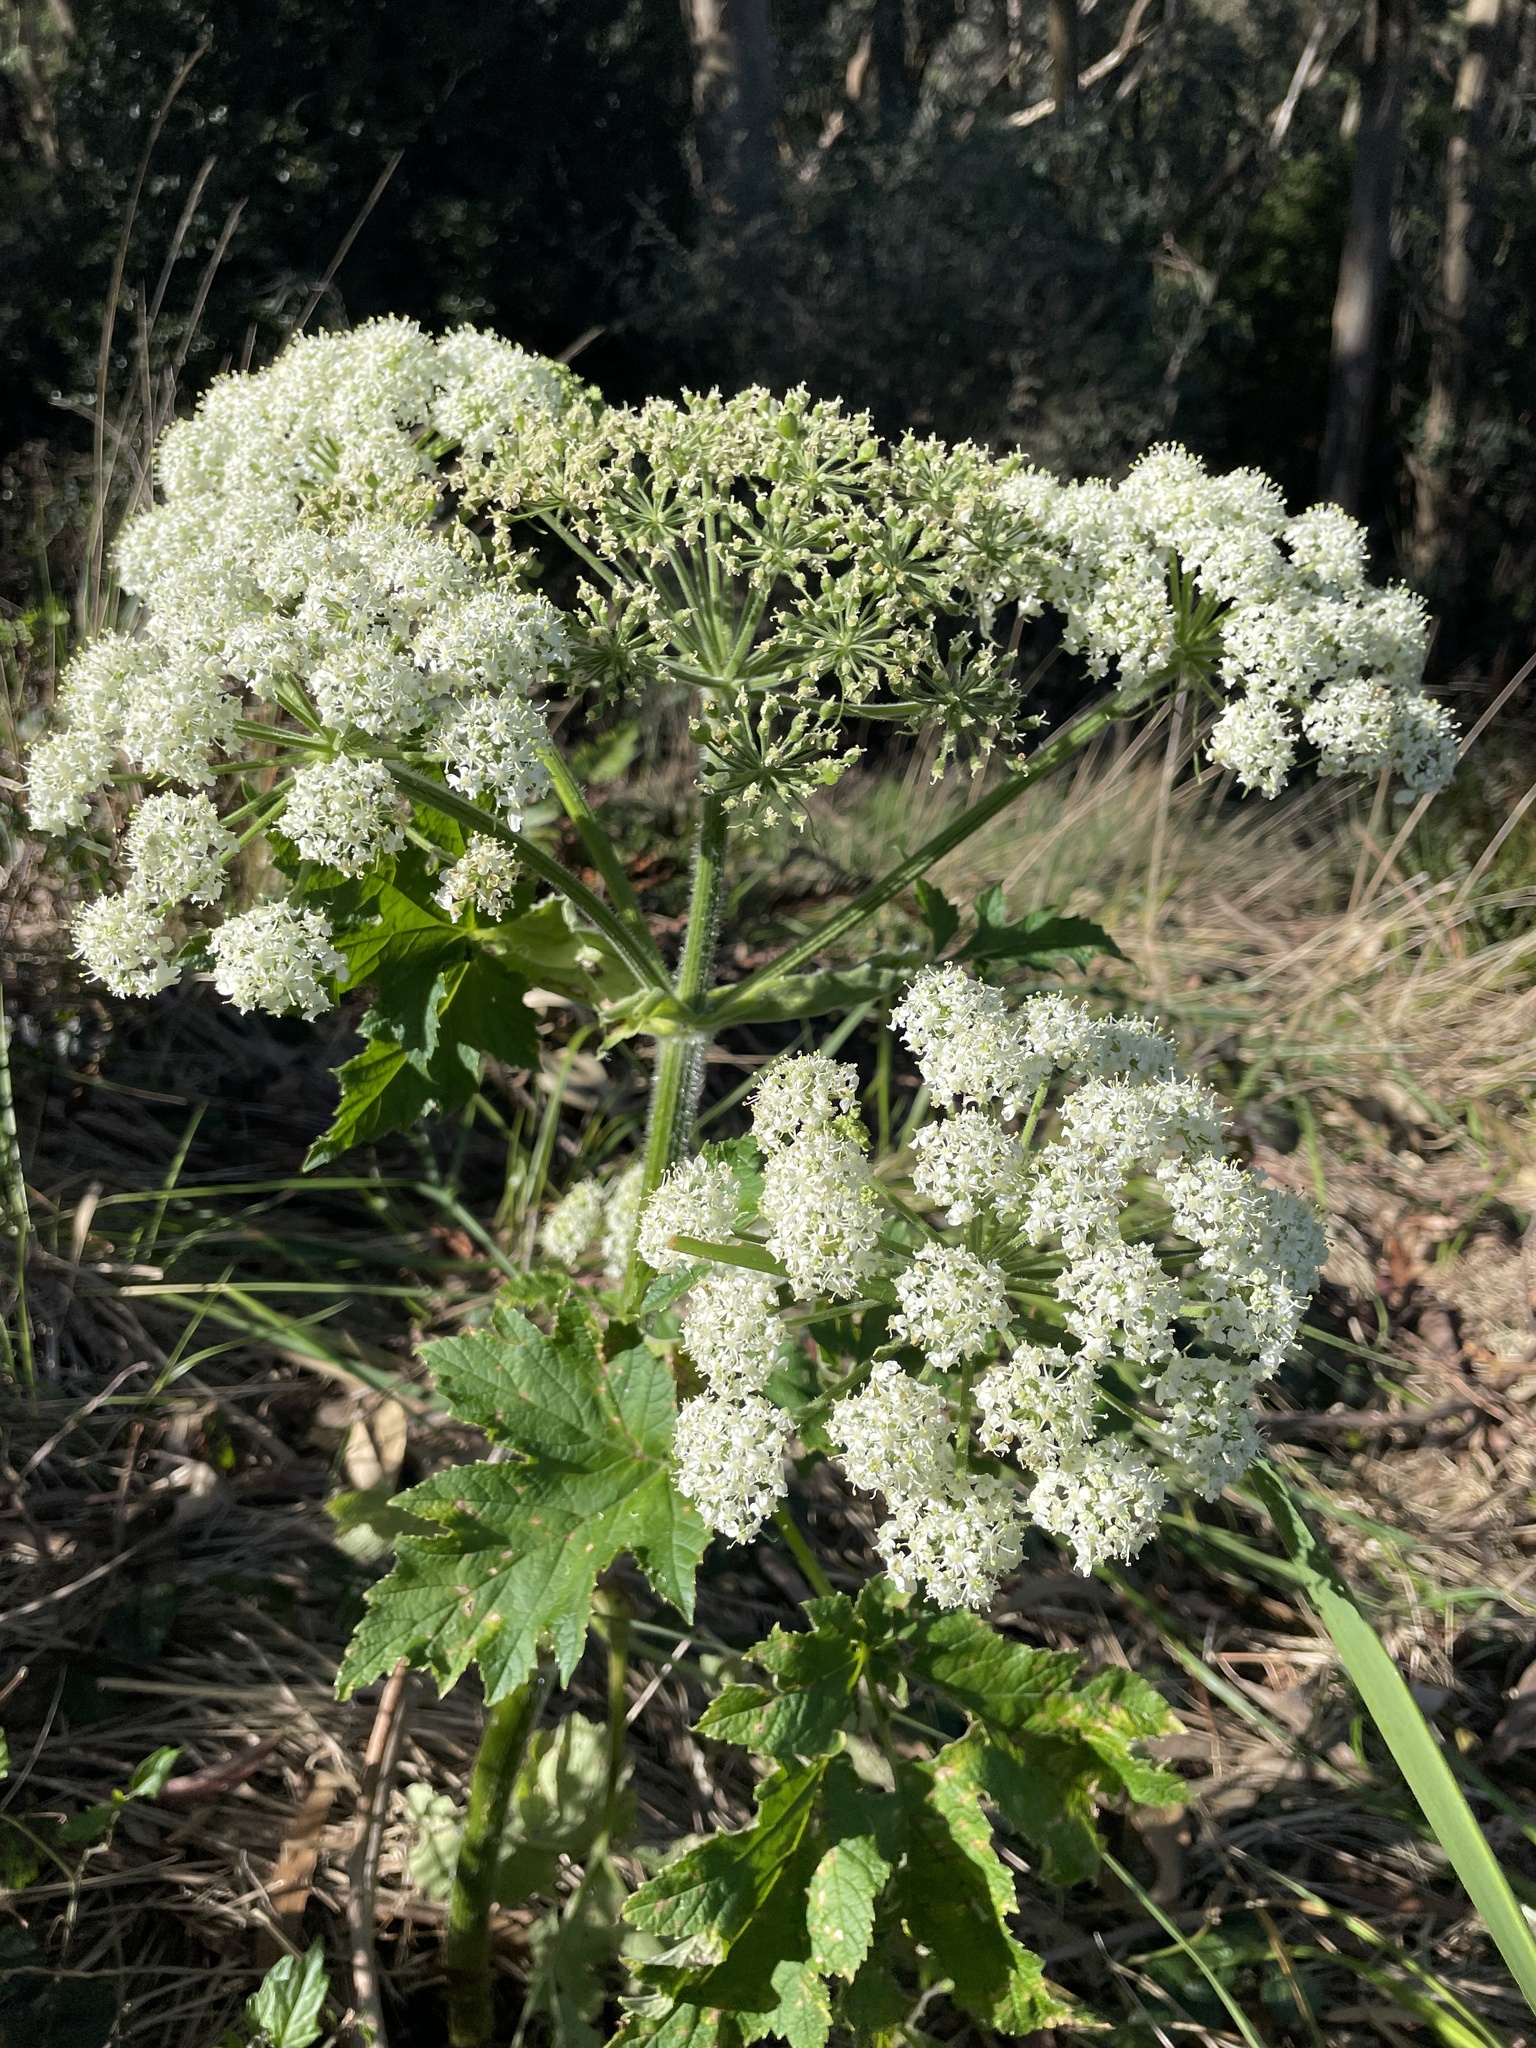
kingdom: Plantae
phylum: Tracheophyta
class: Magnoliopsida
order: Apiales
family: Apiaceae
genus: Heracleum
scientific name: Heracleum maximum
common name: American cow parsnip
